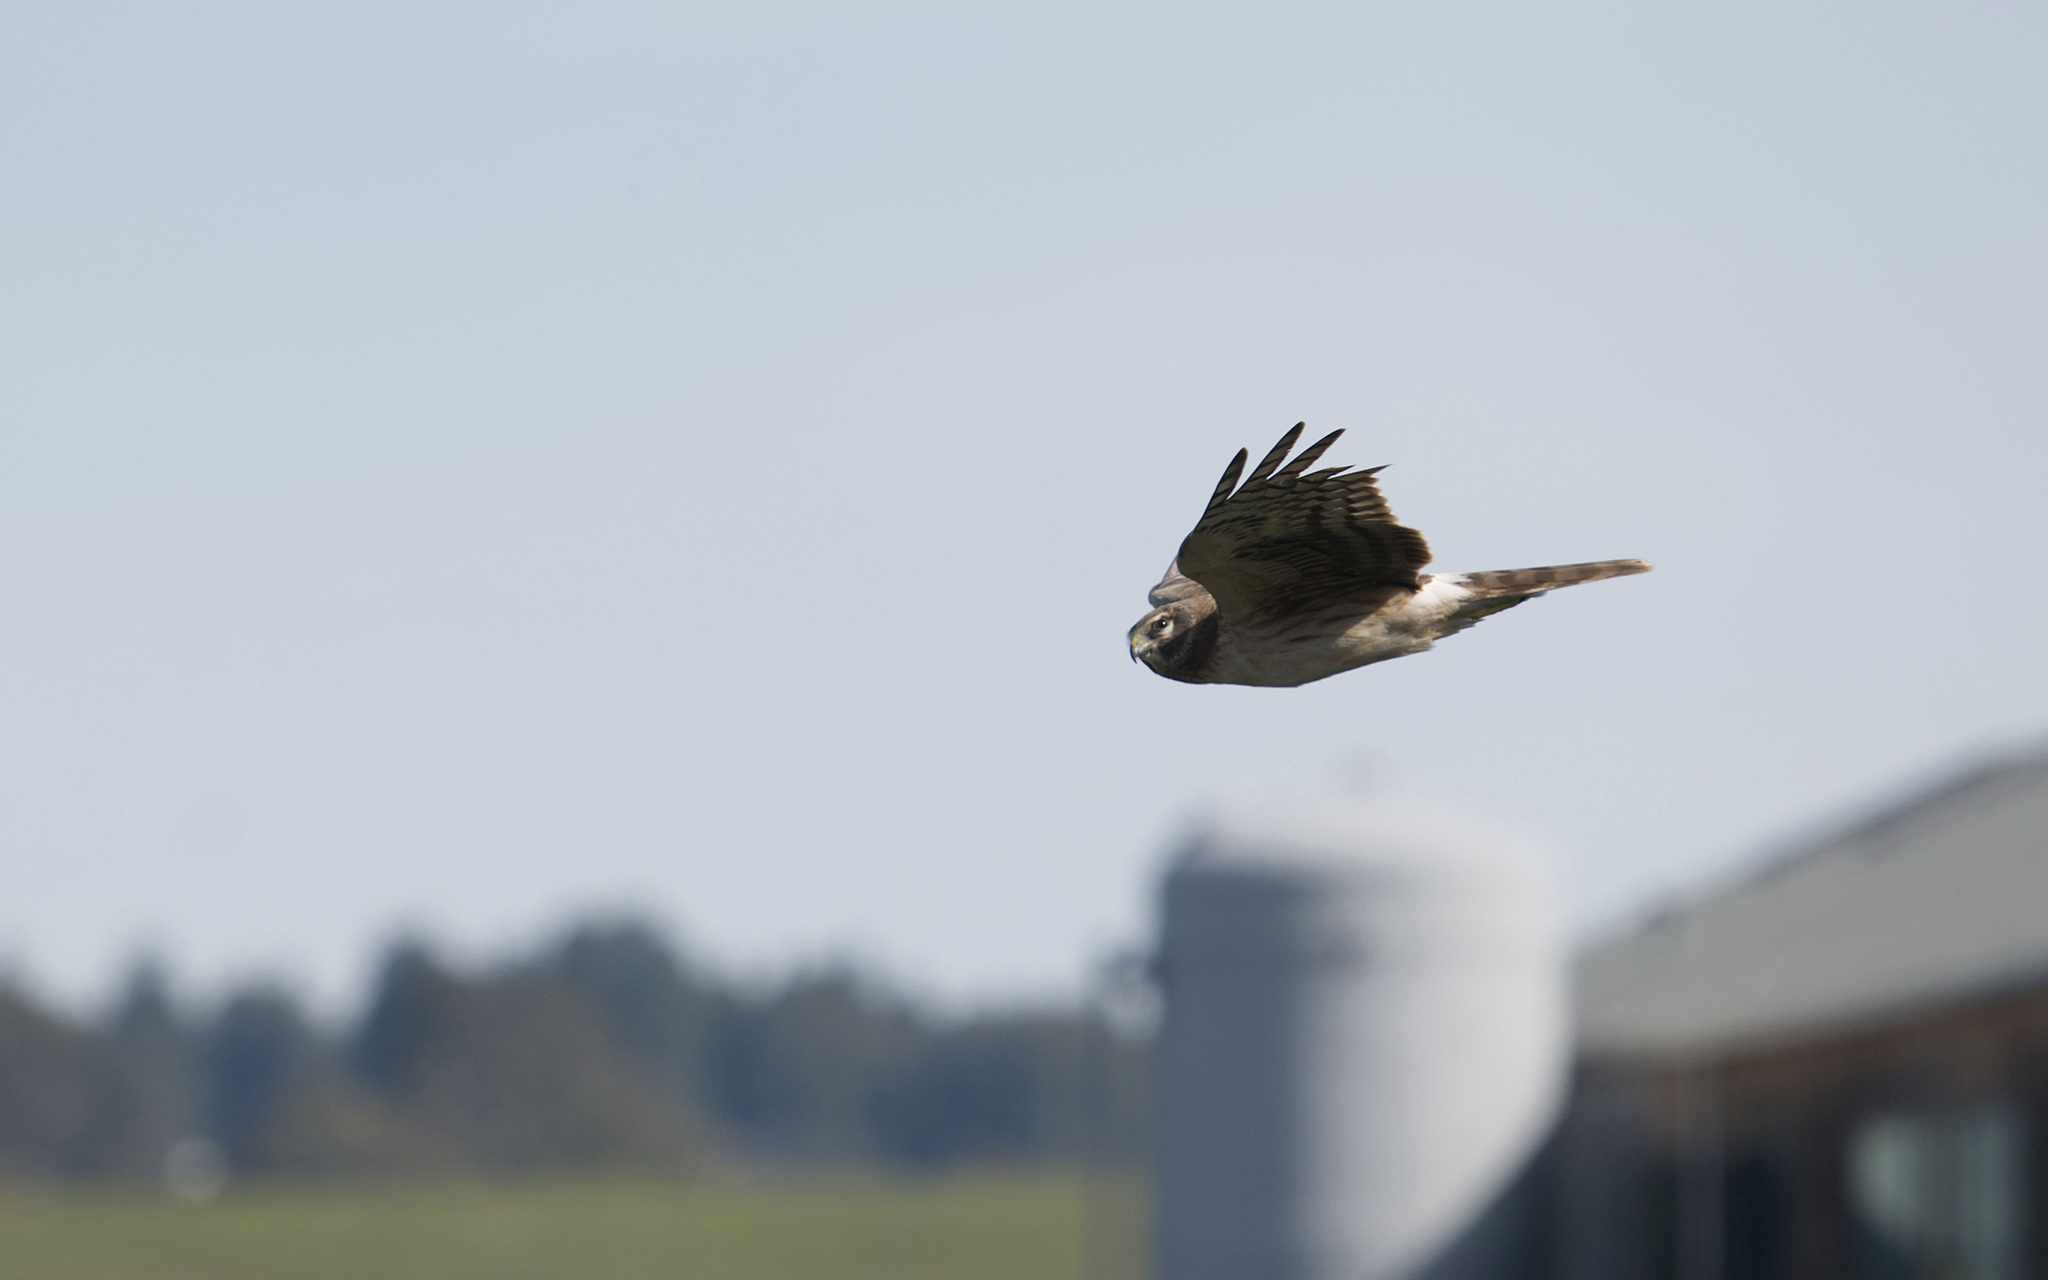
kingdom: Animalia
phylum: Chordata
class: Aves
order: Accipitriformes
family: Accipitridae
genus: Circus
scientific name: Circus cyaneus
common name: Hen harrier
